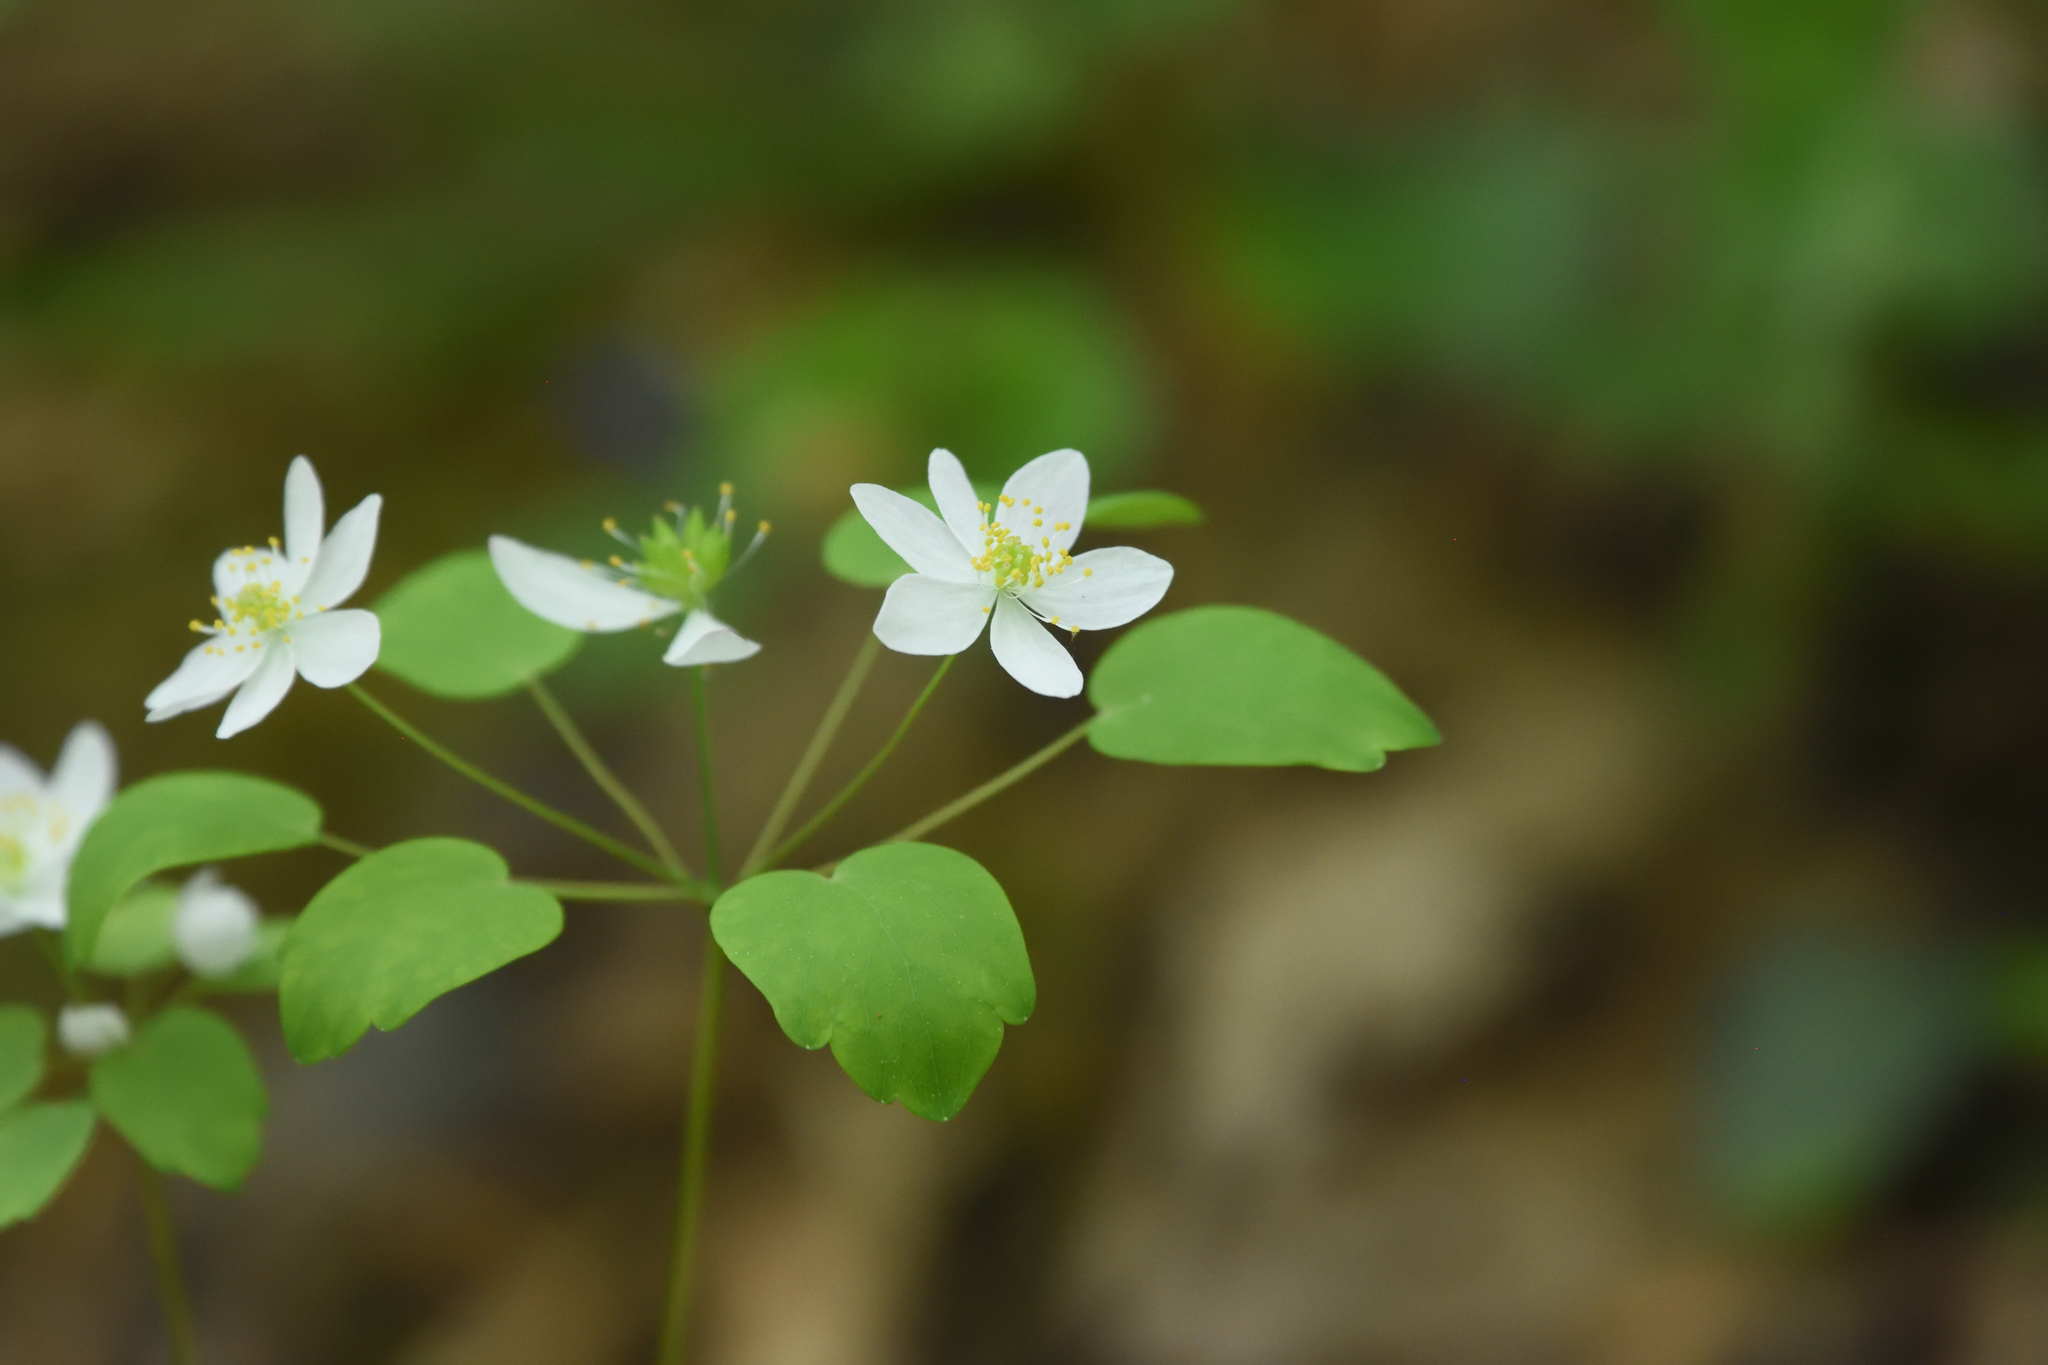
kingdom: Plantae
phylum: Tracheophyta
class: Magnoliopsida
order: Ranunculales
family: Ranunculaceae
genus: Thalictrum
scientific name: Thalictrum thalictroides
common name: Rue-anemone
